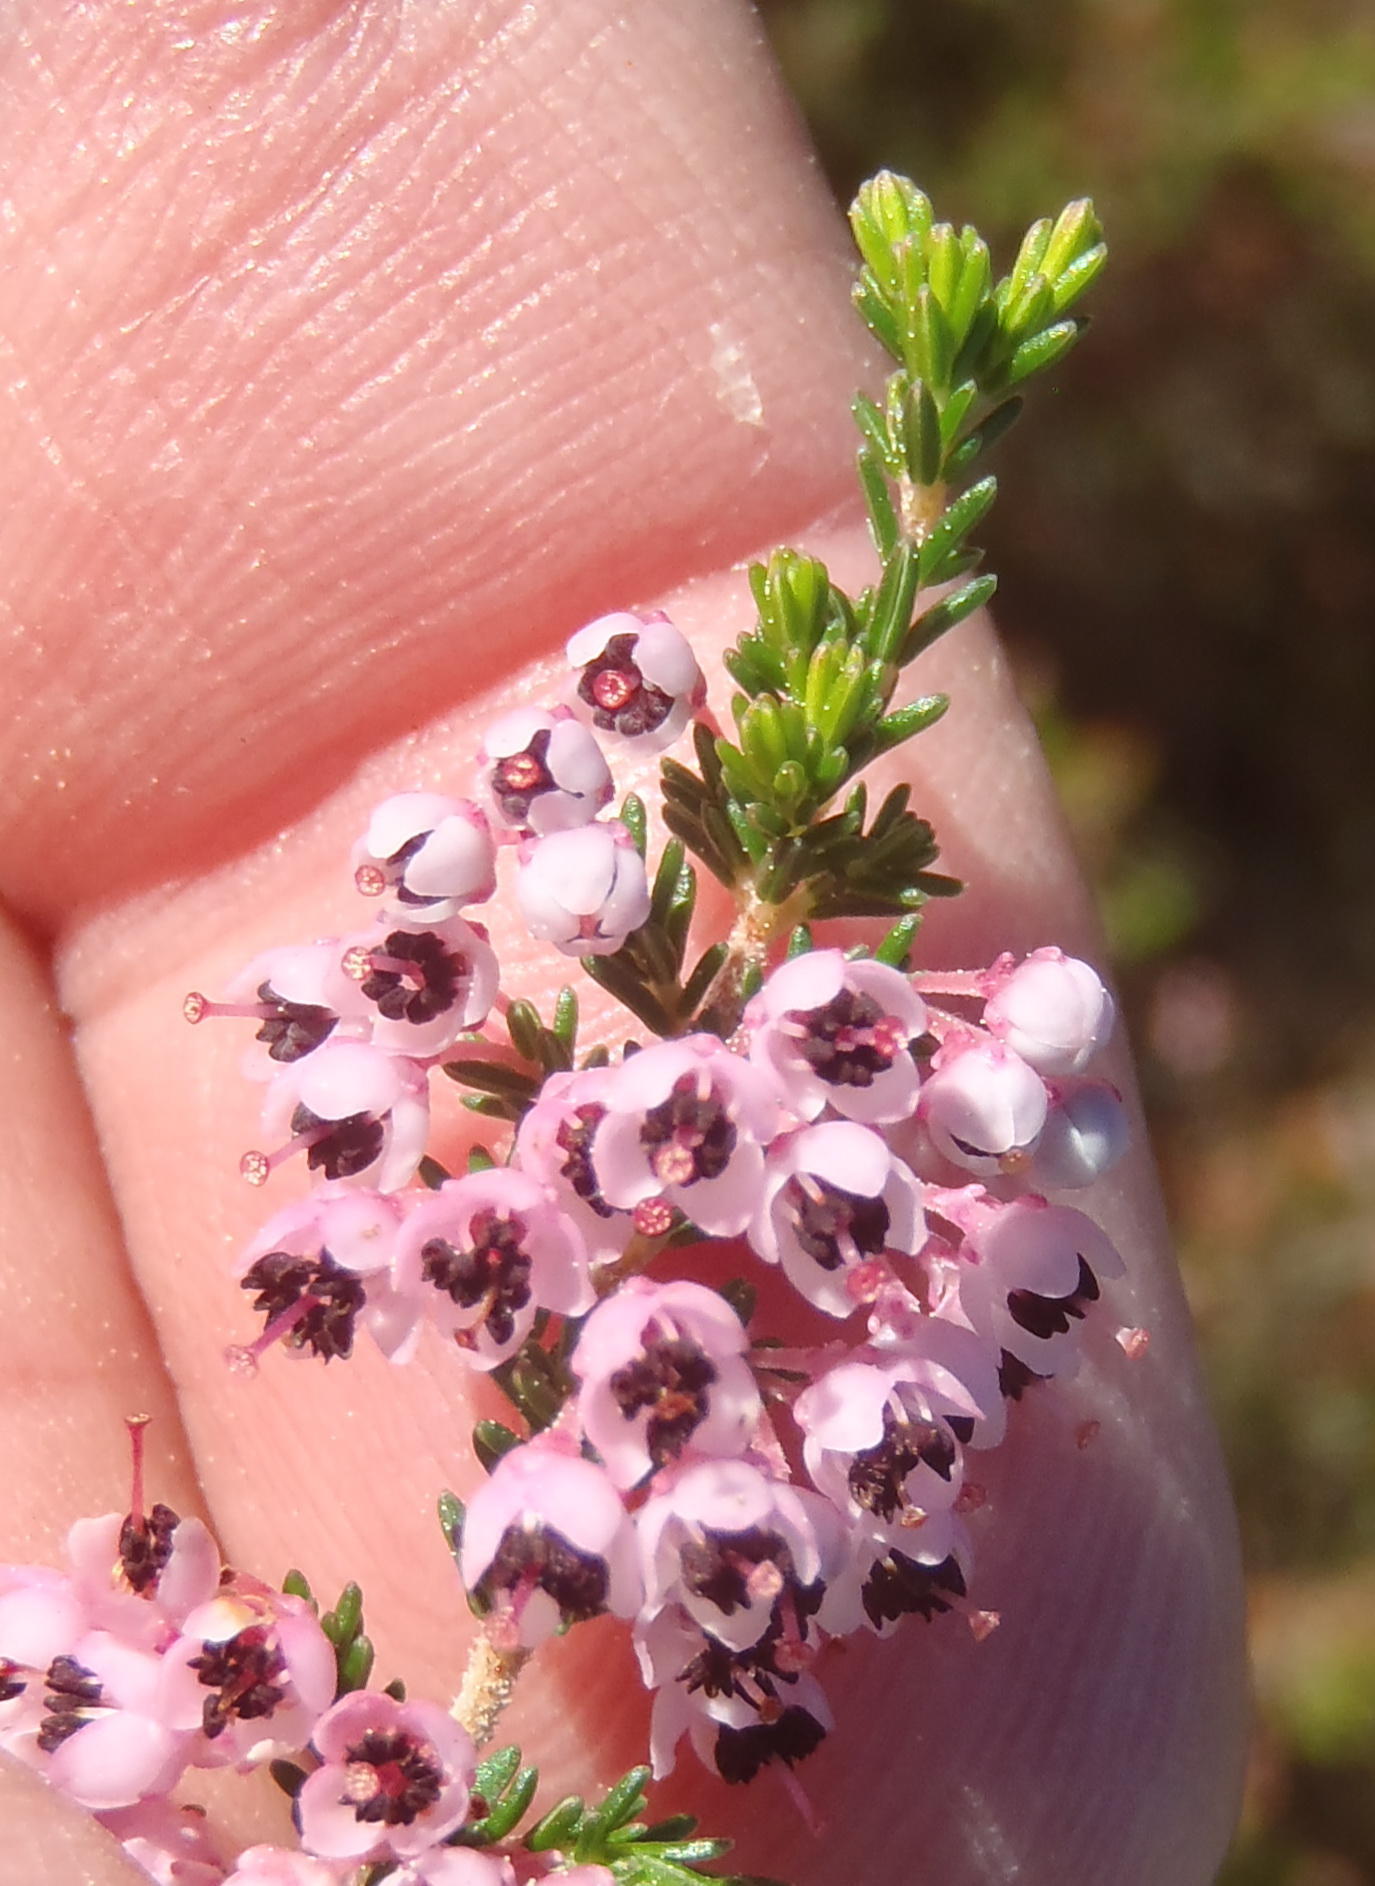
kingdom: Plantae
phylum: Tracheophyta
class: Magnoliopsida
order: Ericales
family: Ericaceae
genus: Erica
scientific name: Erica sparsa
